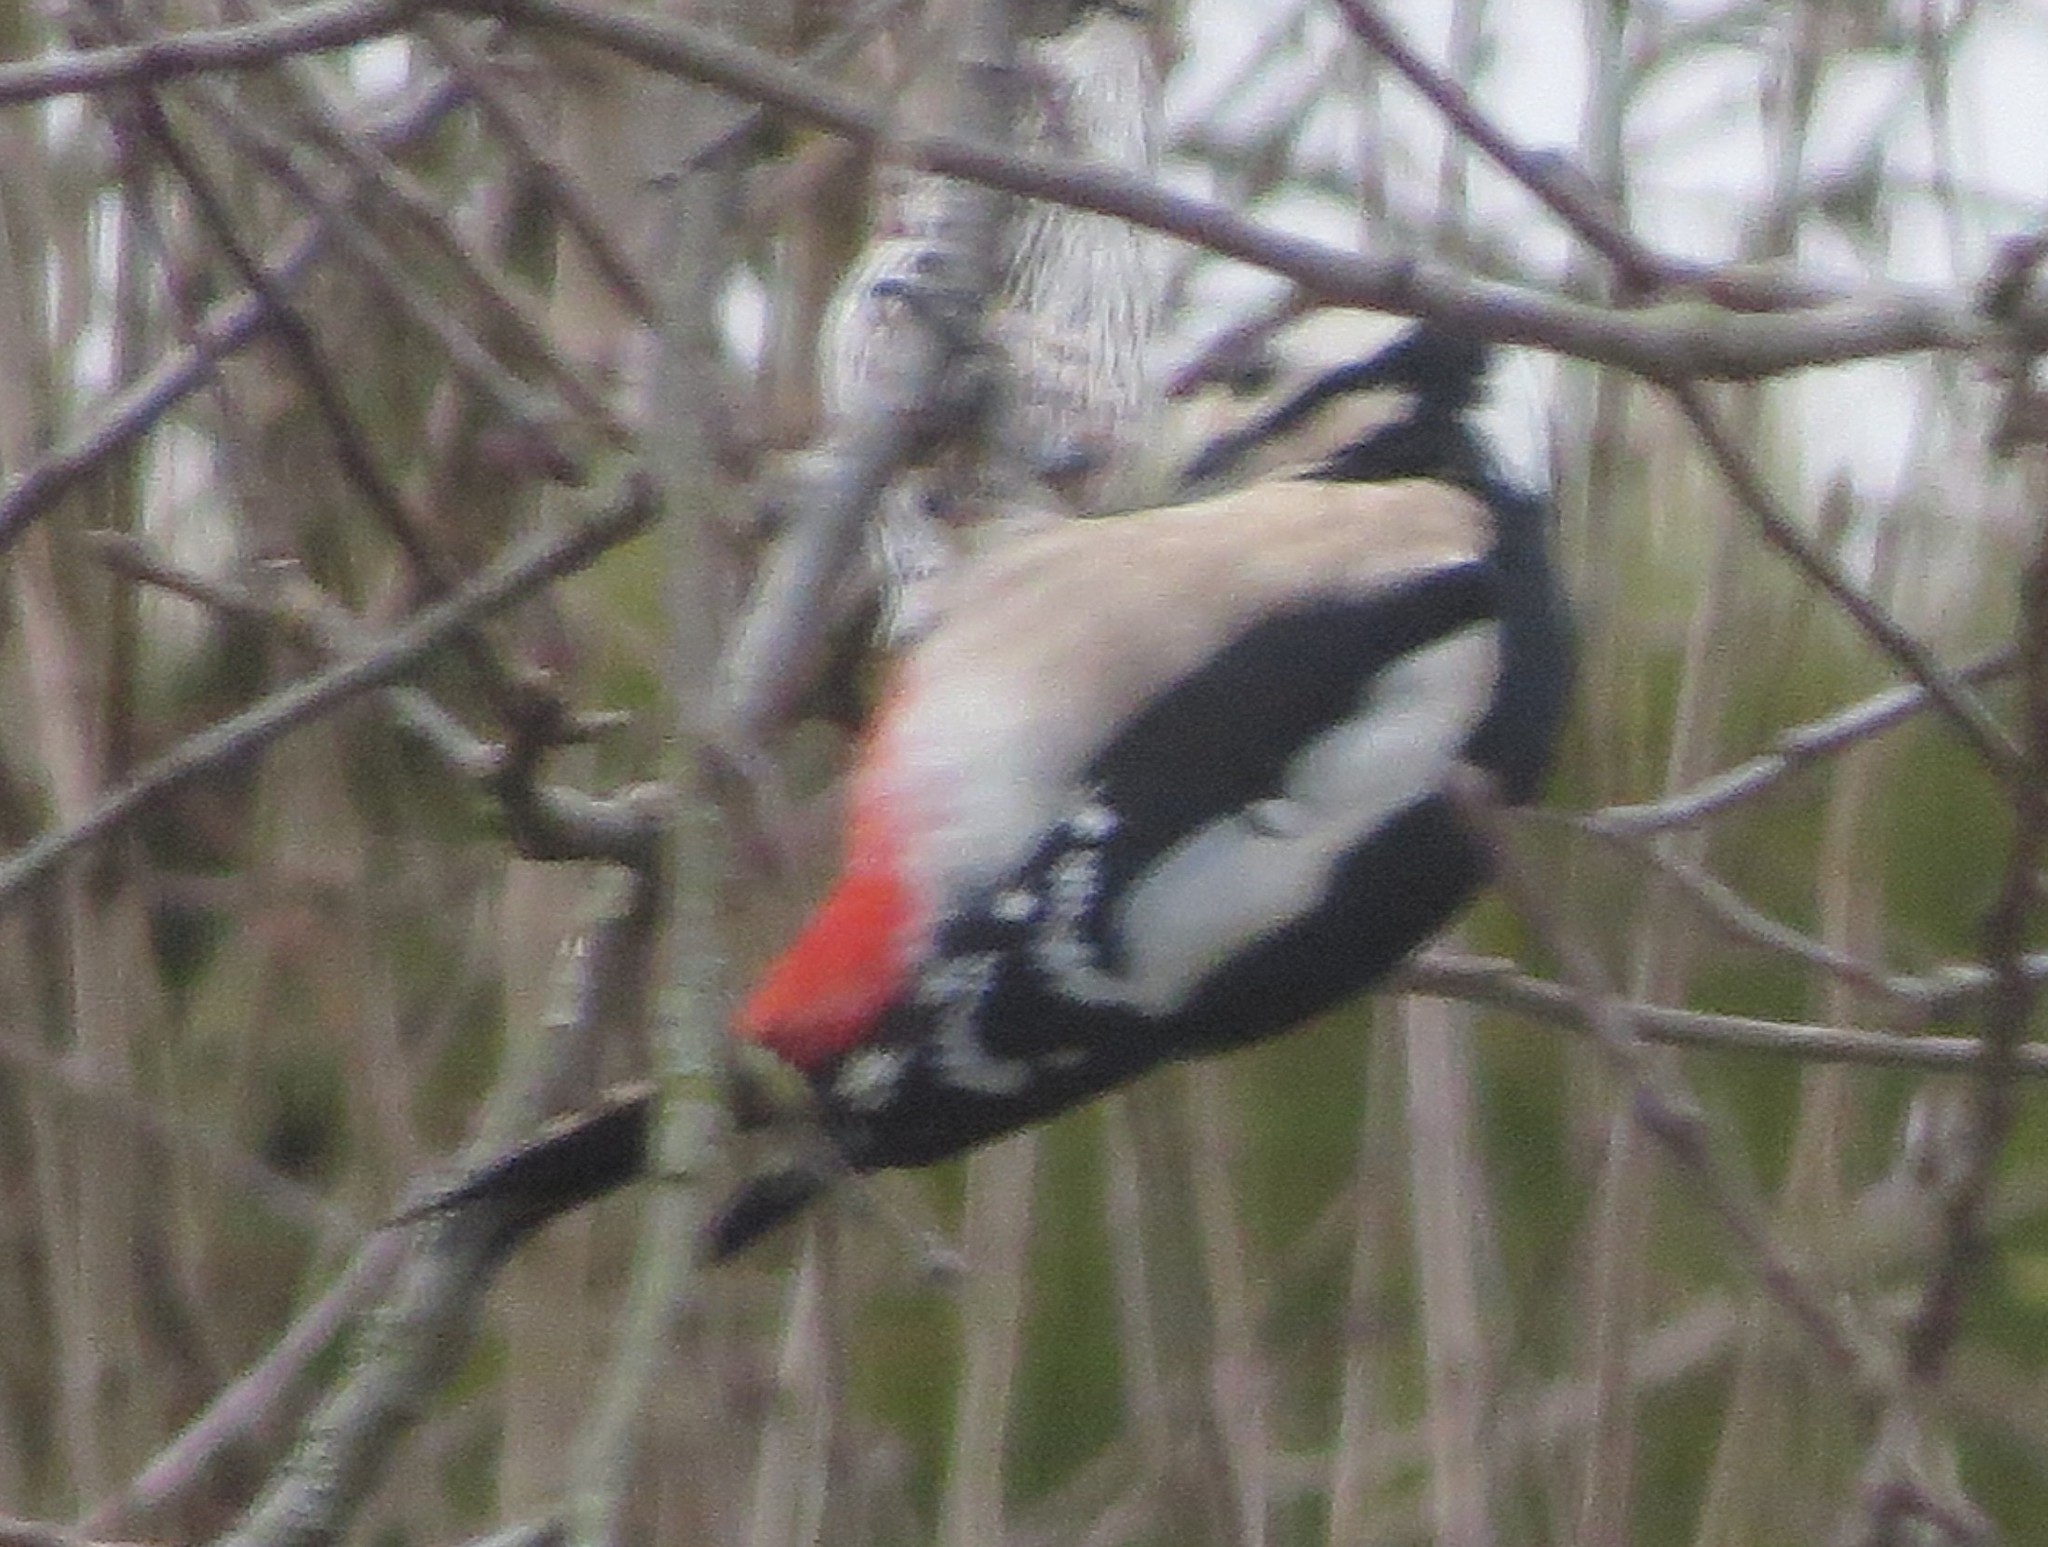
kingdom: Animalia
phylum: Chordata
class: Aves
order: Piciformes
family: Picidae
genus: Dendrocopos
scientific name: Dendrocopos major
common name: Great spotted woodpecker
